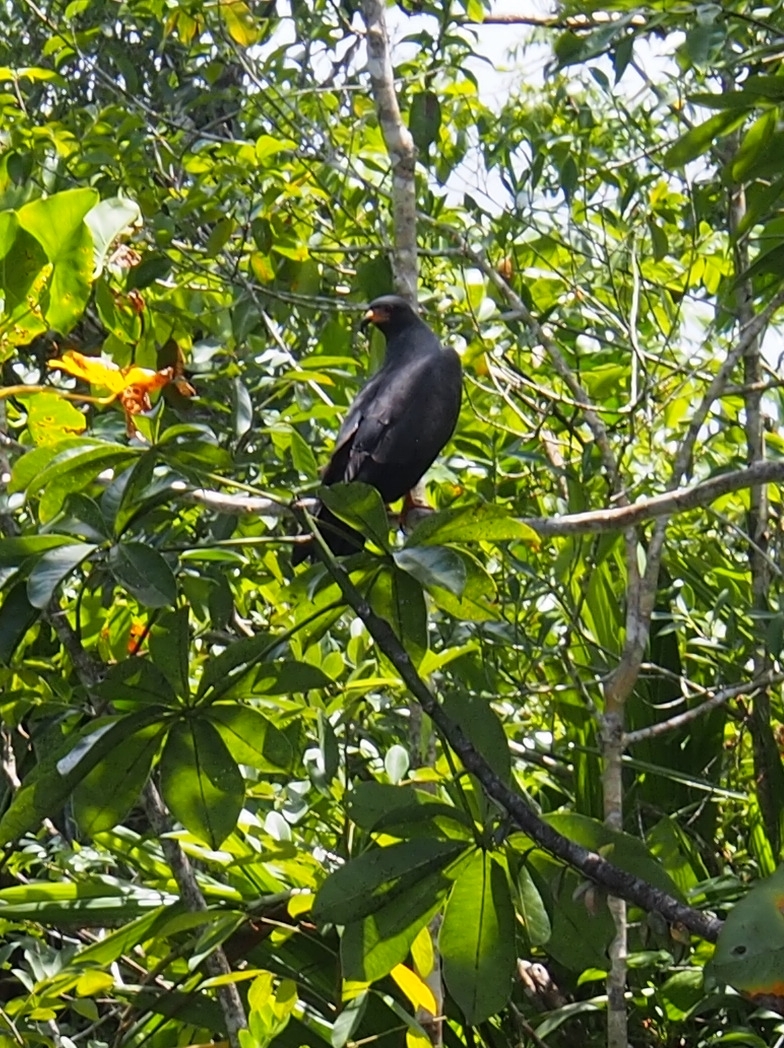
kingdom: Animalia
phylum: Chordata
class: Aves
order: Accipitriformes
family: Accipitridae
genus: Rostrhamus
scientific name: Rostrhamus sociabilis
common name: Snail kite
